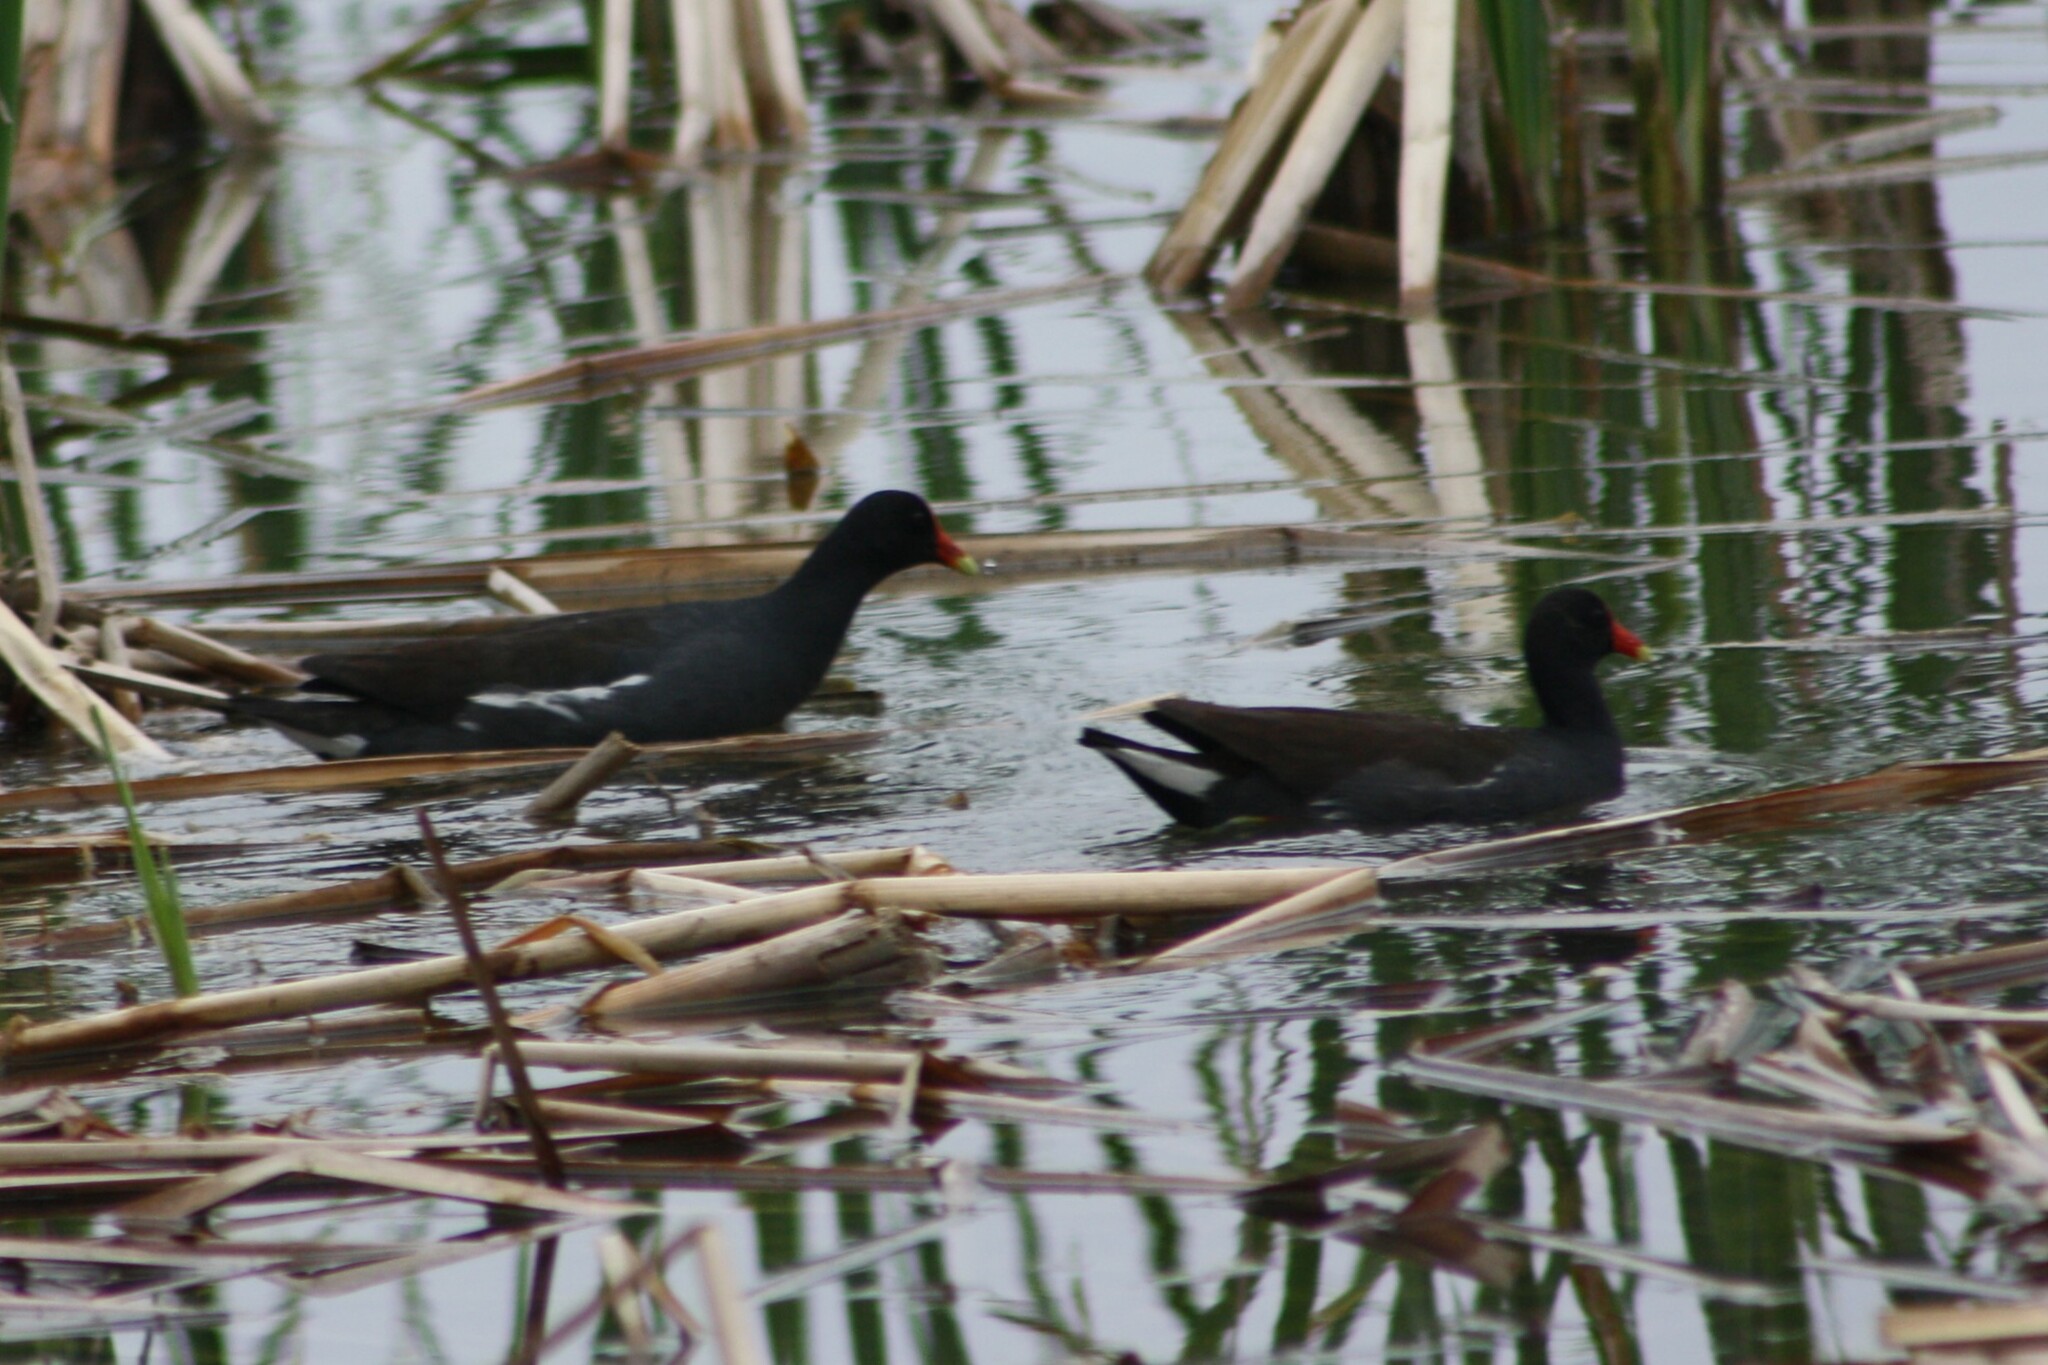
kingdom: Animalia
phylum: Chordata
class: Aves
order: Gruiformes
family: Rallidae
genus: Gallinula
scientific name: Gallinula chloropus
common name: Common moorhen
